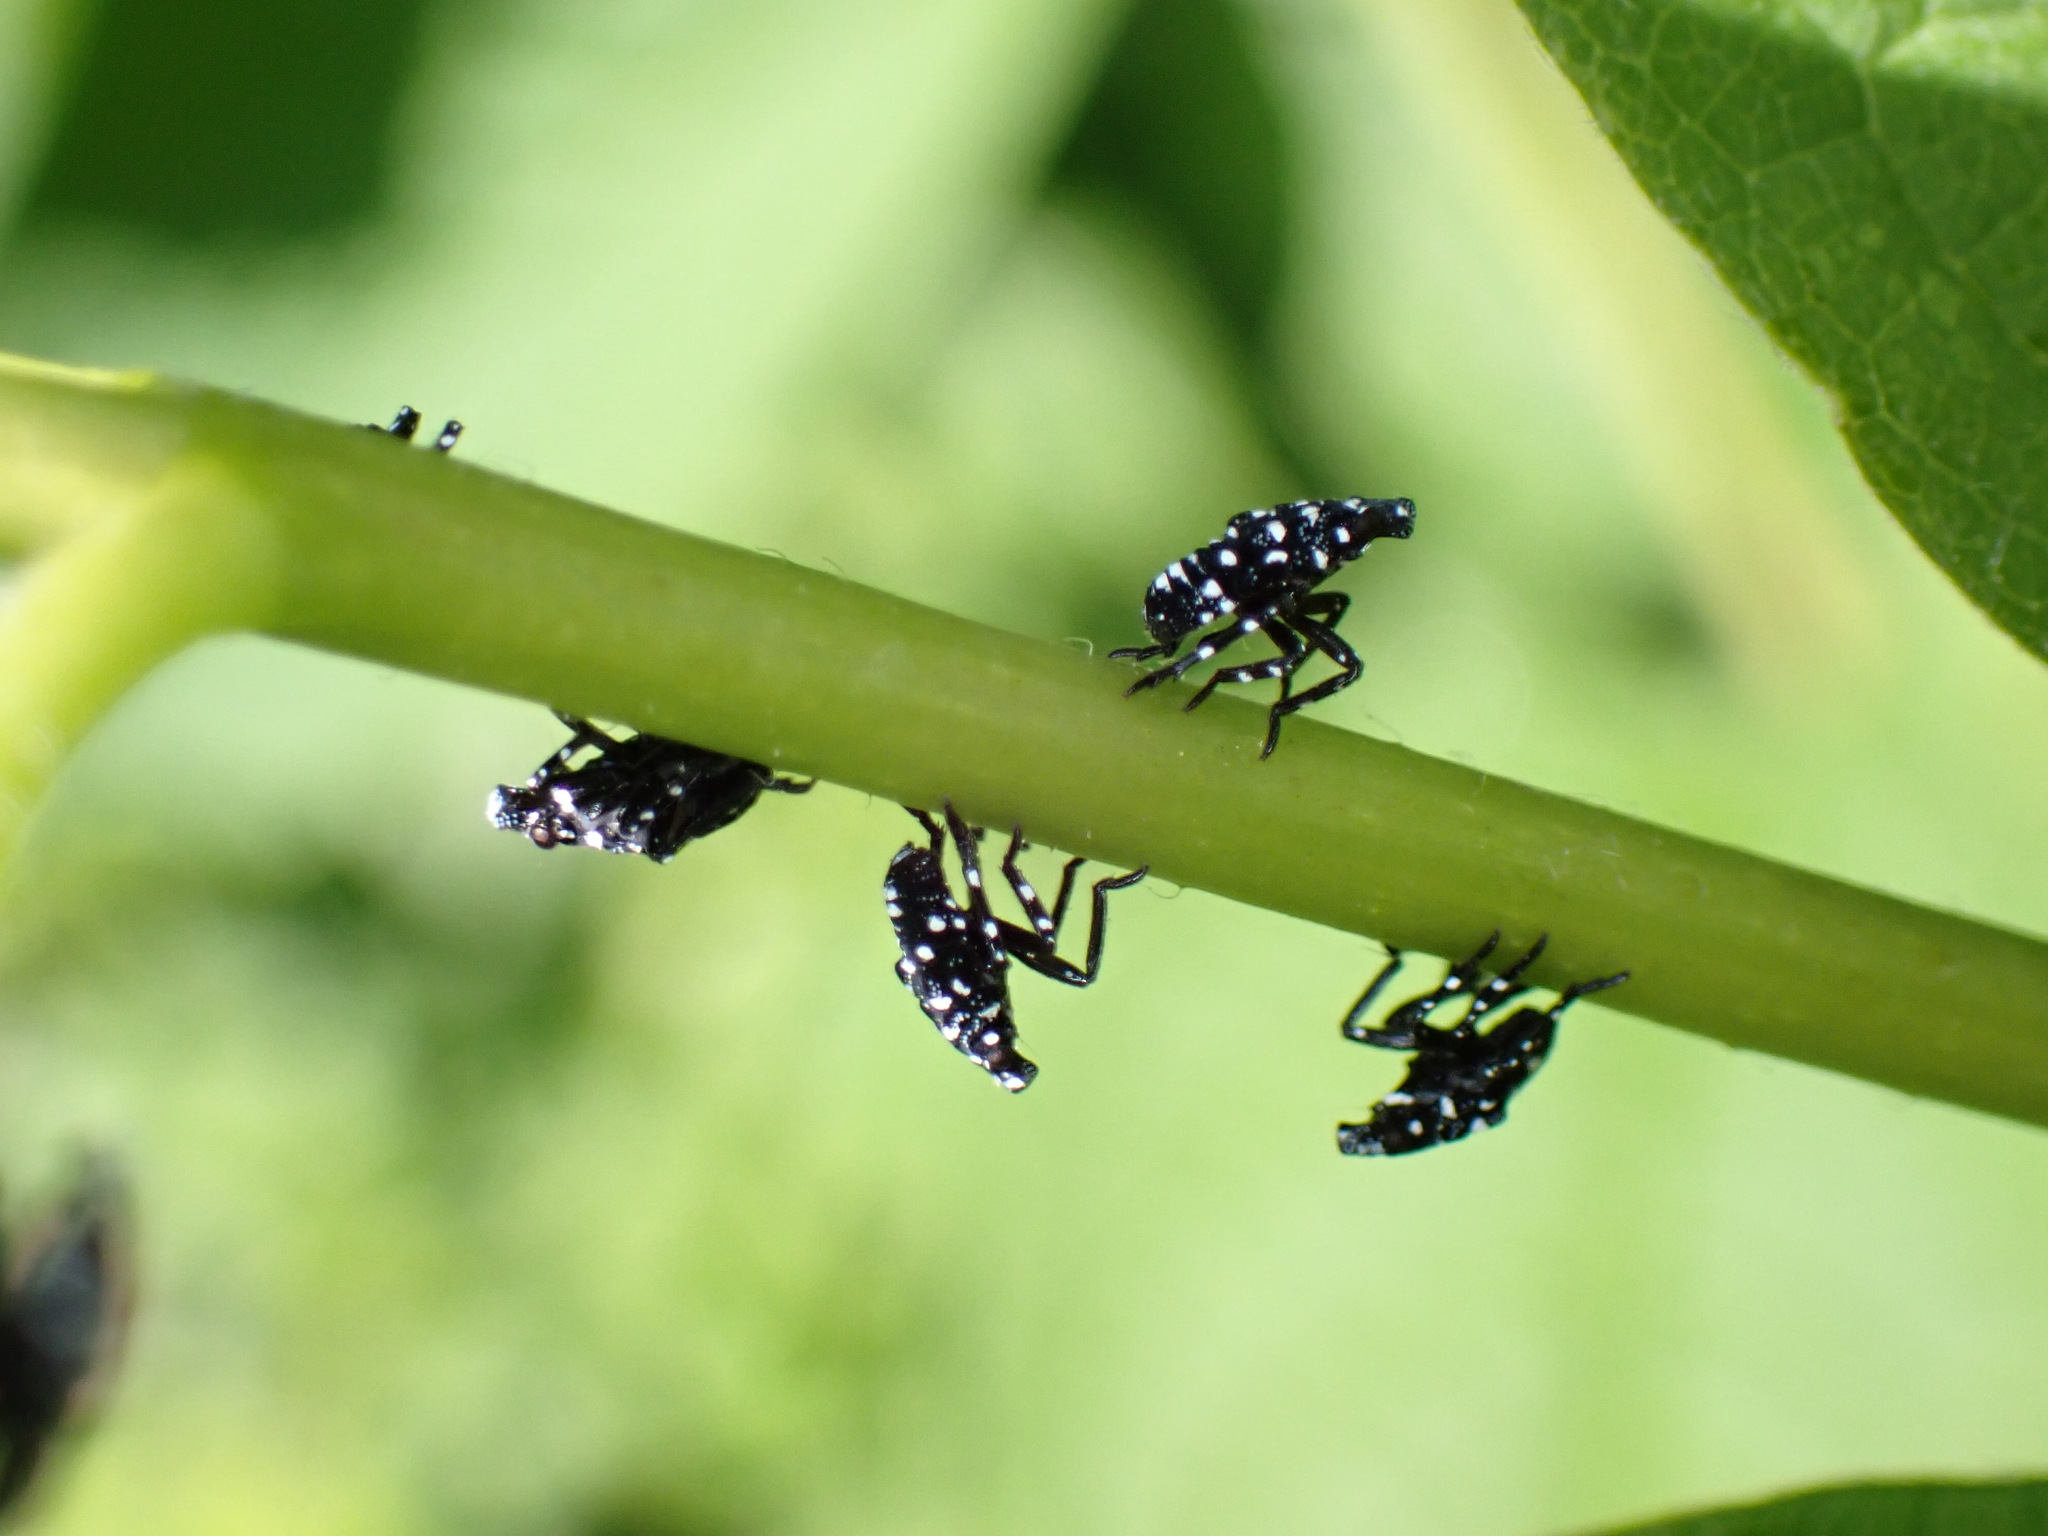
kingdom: Animalia
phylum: Arthropoda
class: Insecta
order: Hemiptera
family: Fulgoridae
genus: Lycorma
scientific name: Lycorma delicatula
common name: Spotted lanternfly
